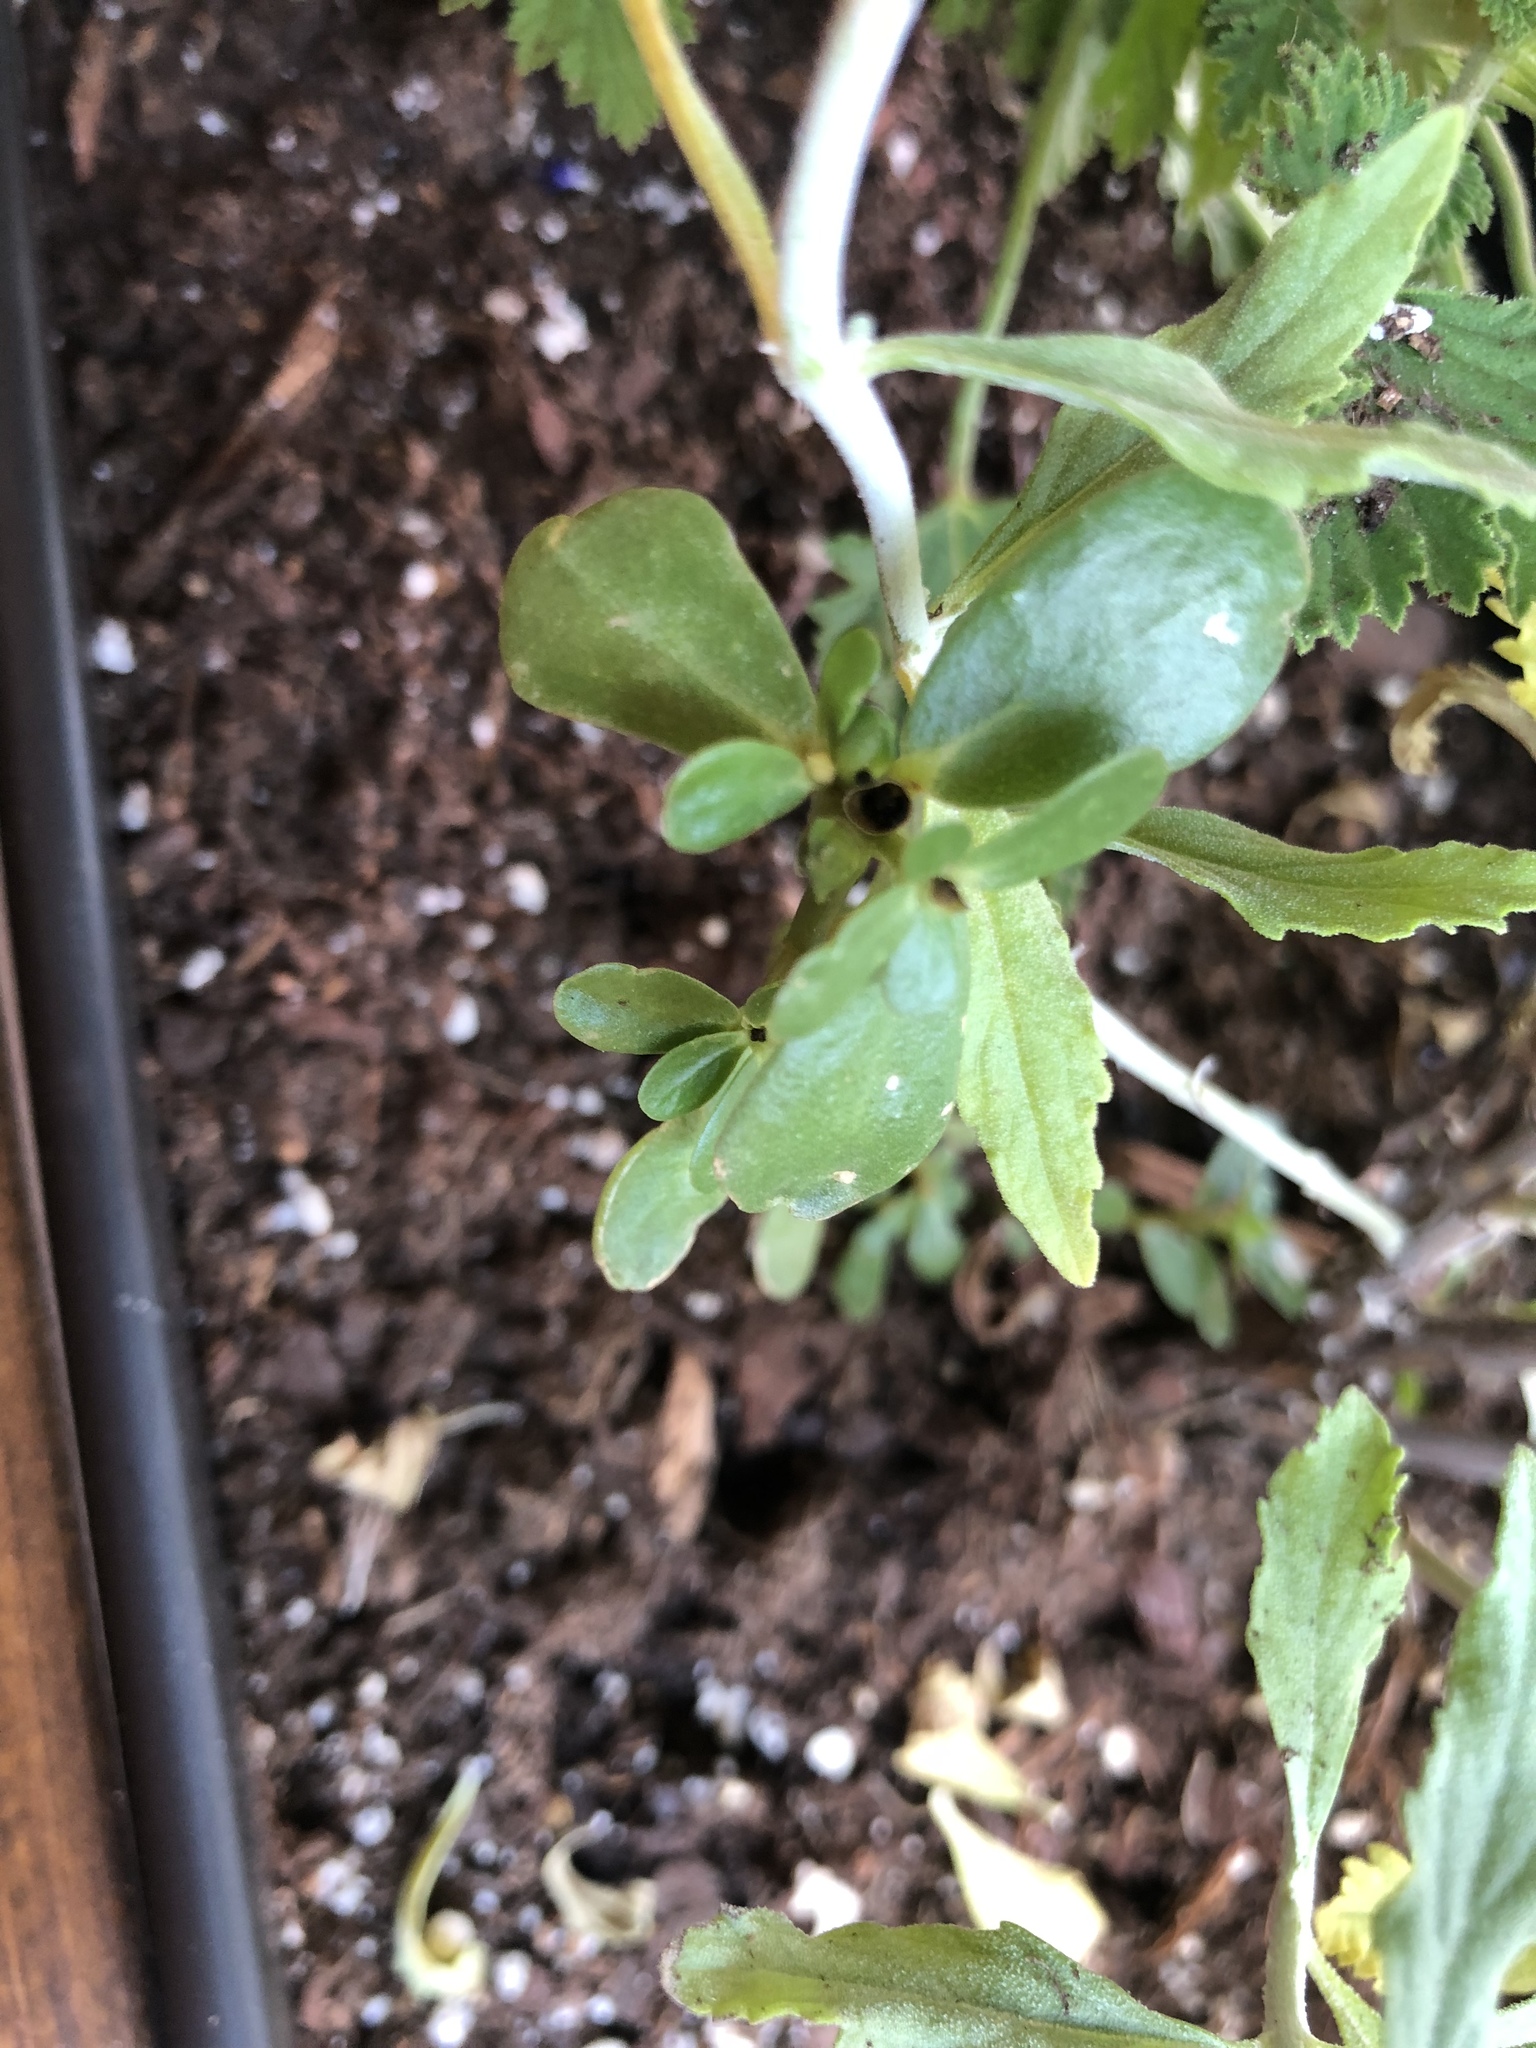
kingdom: Plantae
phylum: Tracheophyta
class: Magnoliopsida
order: Caryophyllales
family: Portulacaceae
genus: Portulaca
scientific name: Portulaca oleracea
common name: Common purslane
